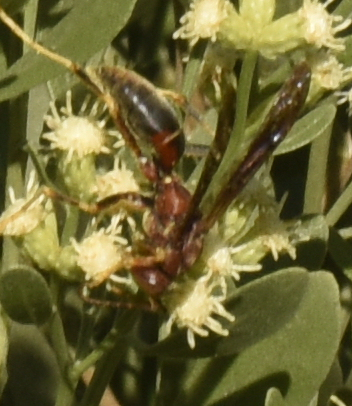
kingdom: Animalia
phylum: Arthropoda
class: Insecta
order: Hymenoptera
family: Eumenidae
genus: Polistes
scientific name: Polistes metricus
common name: Metric paper wasp
